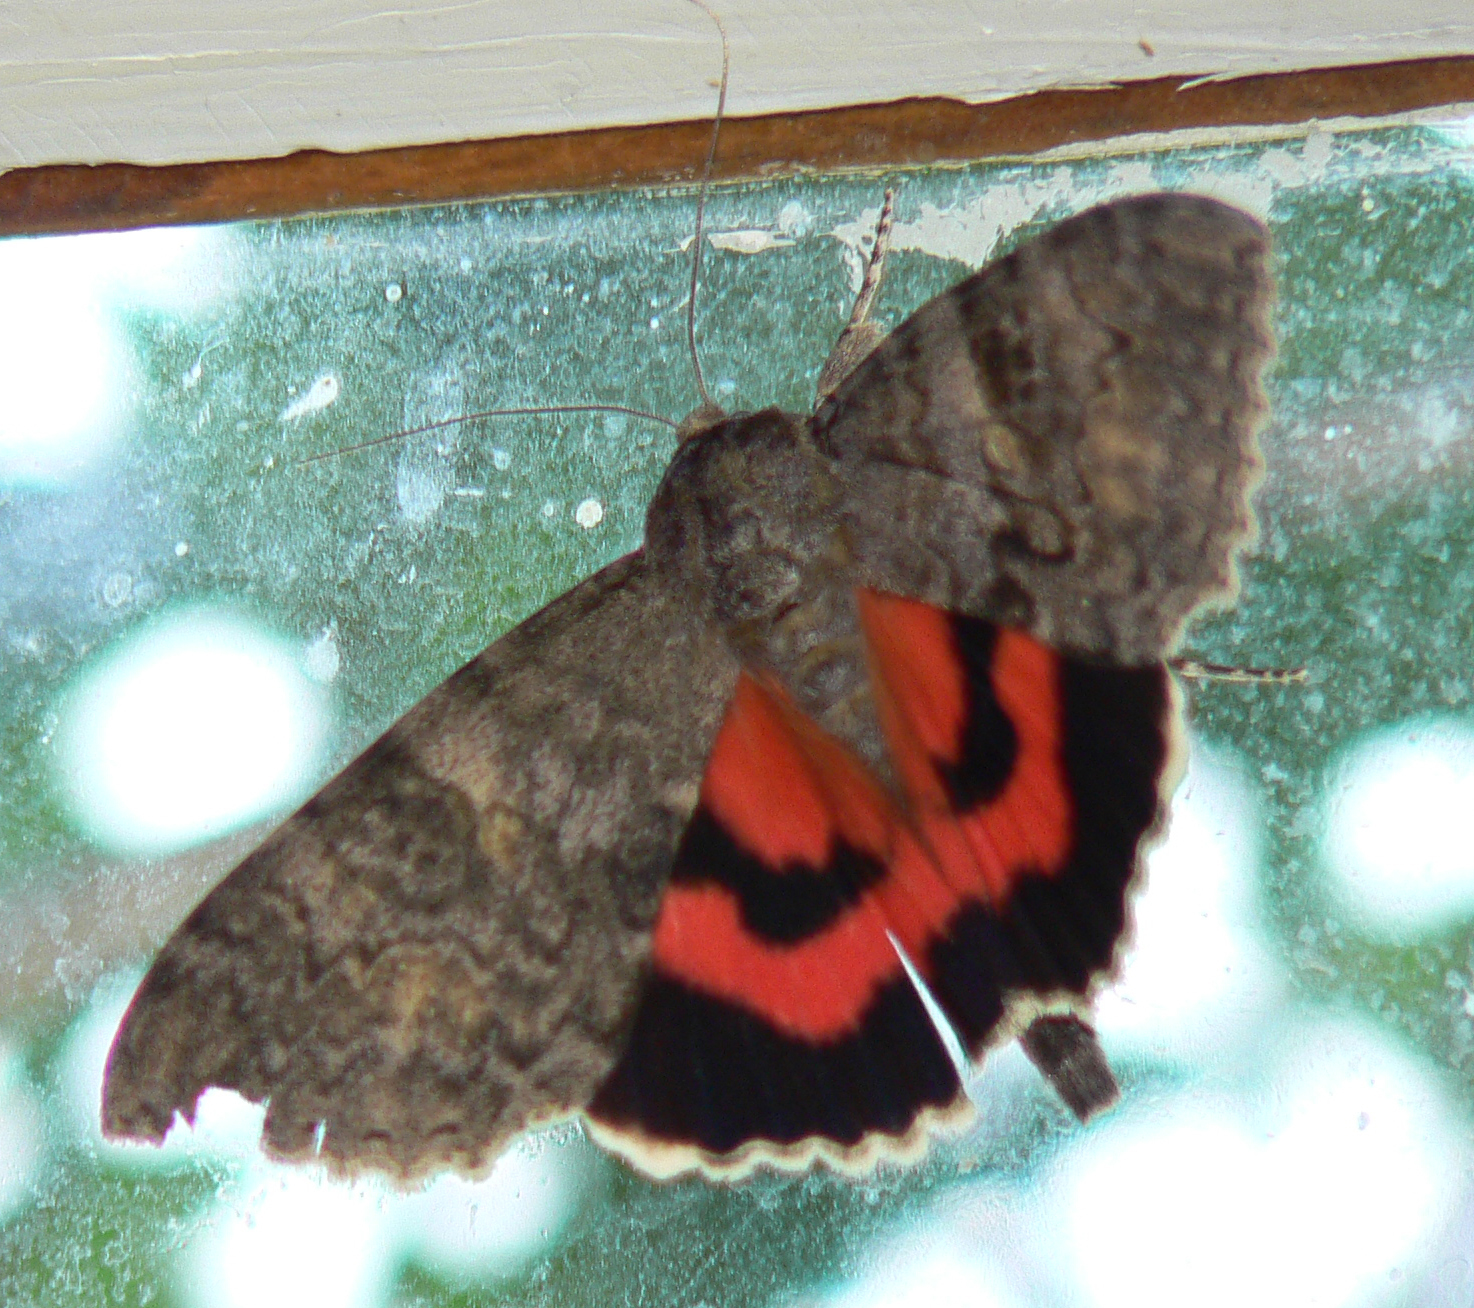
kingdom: Animalia
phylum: Arthropoda
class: Insecta
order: Lepidoptera
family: Erebidae
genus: Catocala
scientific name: Catocala nupta
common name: Red underwing
